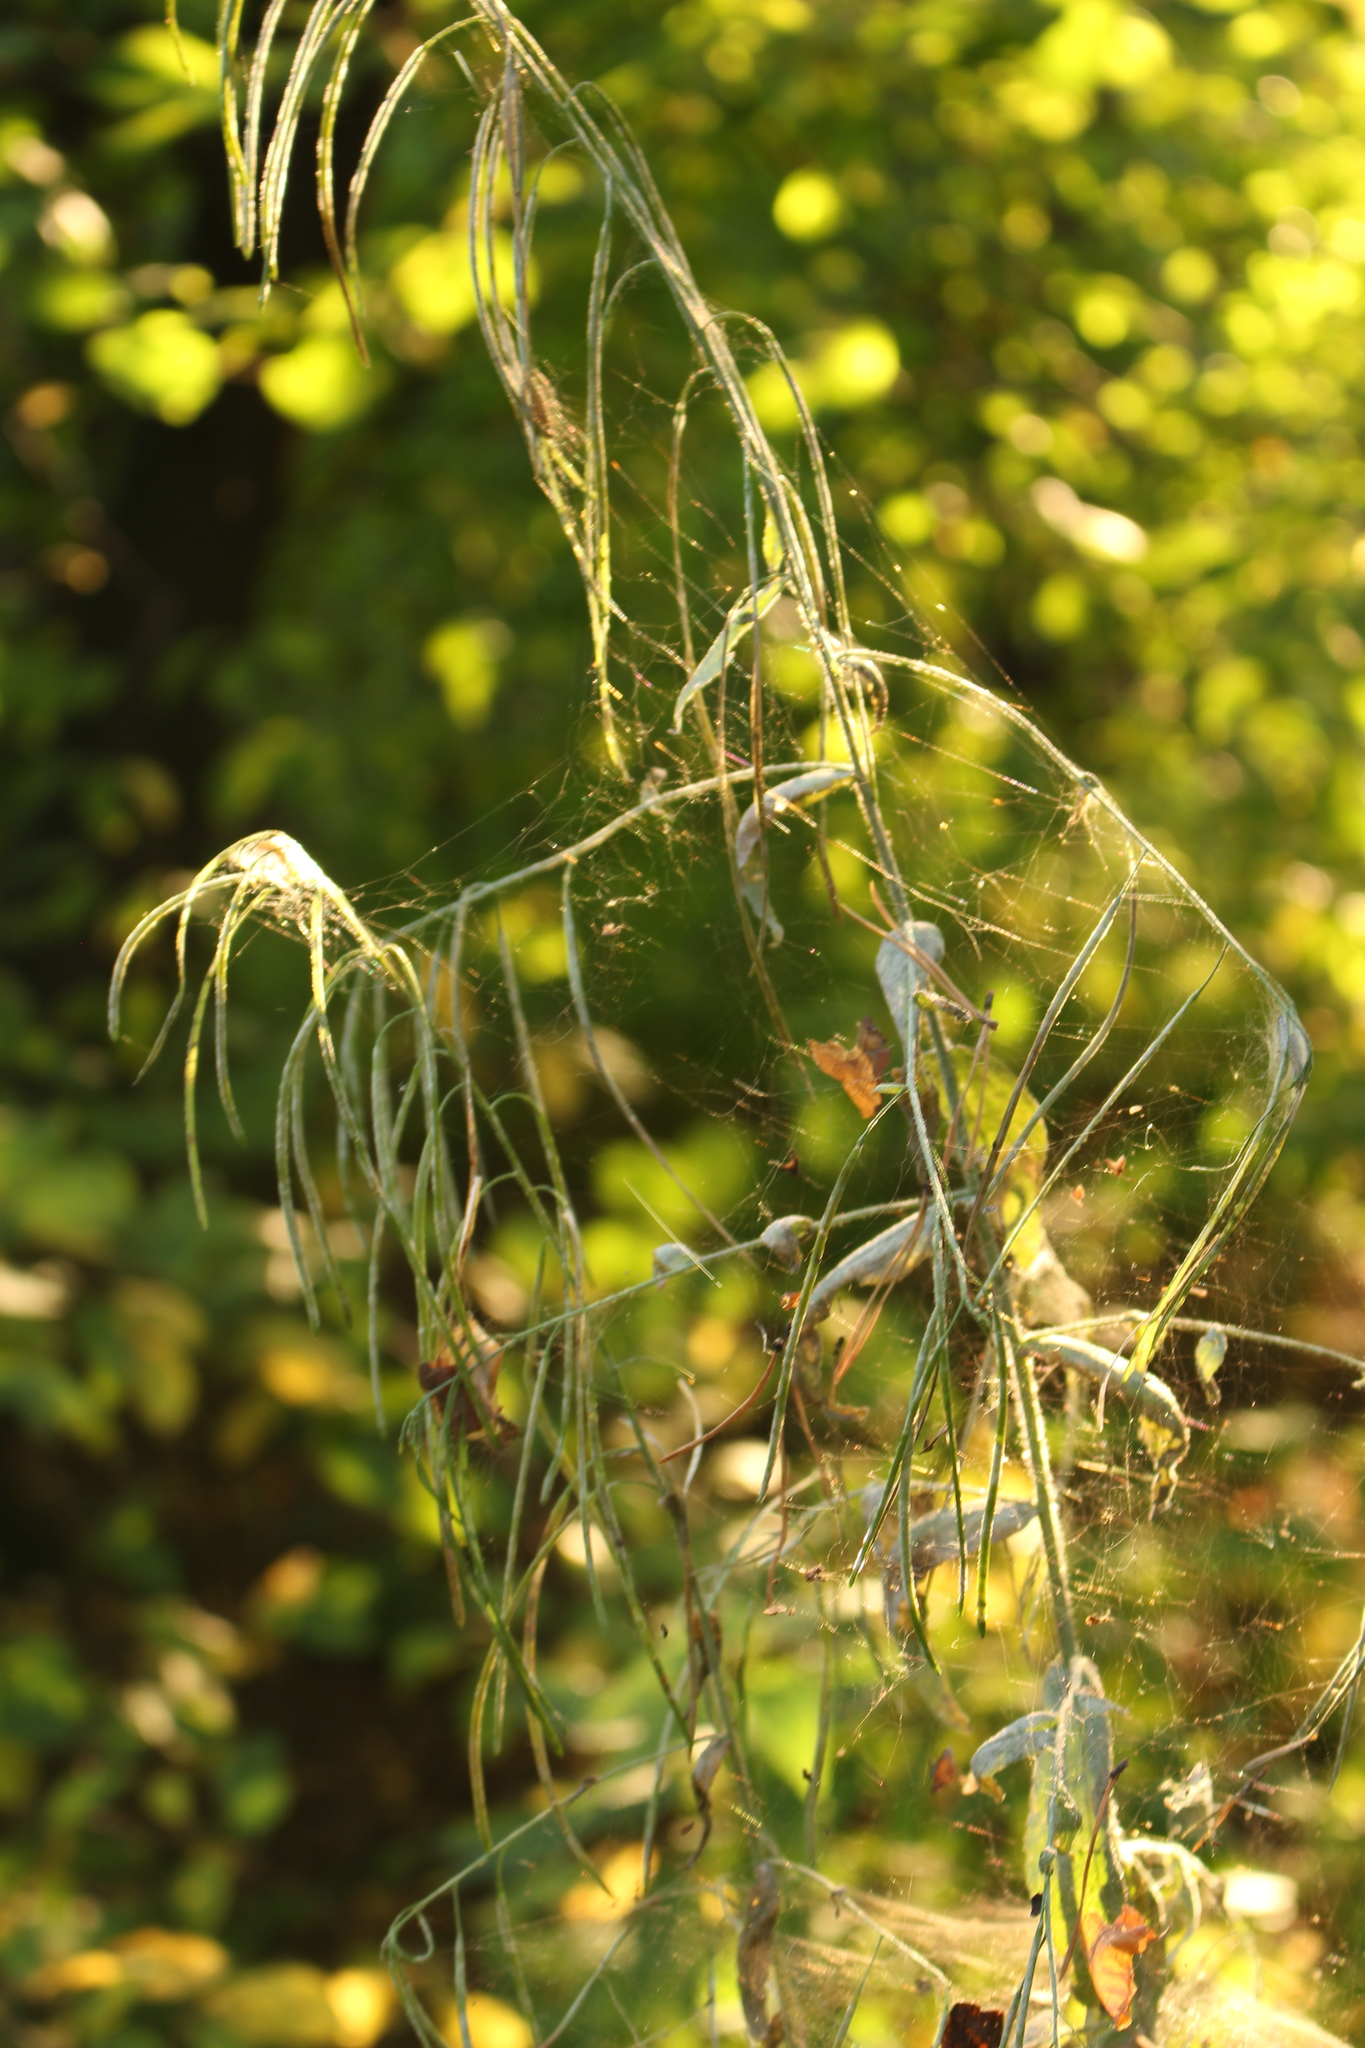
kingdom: Plantae
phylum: Tracheophyta
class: Magnoliopsida
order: Brassicales
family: Brassicaceae
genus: Catolobus
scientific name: Catolobus pendulus
